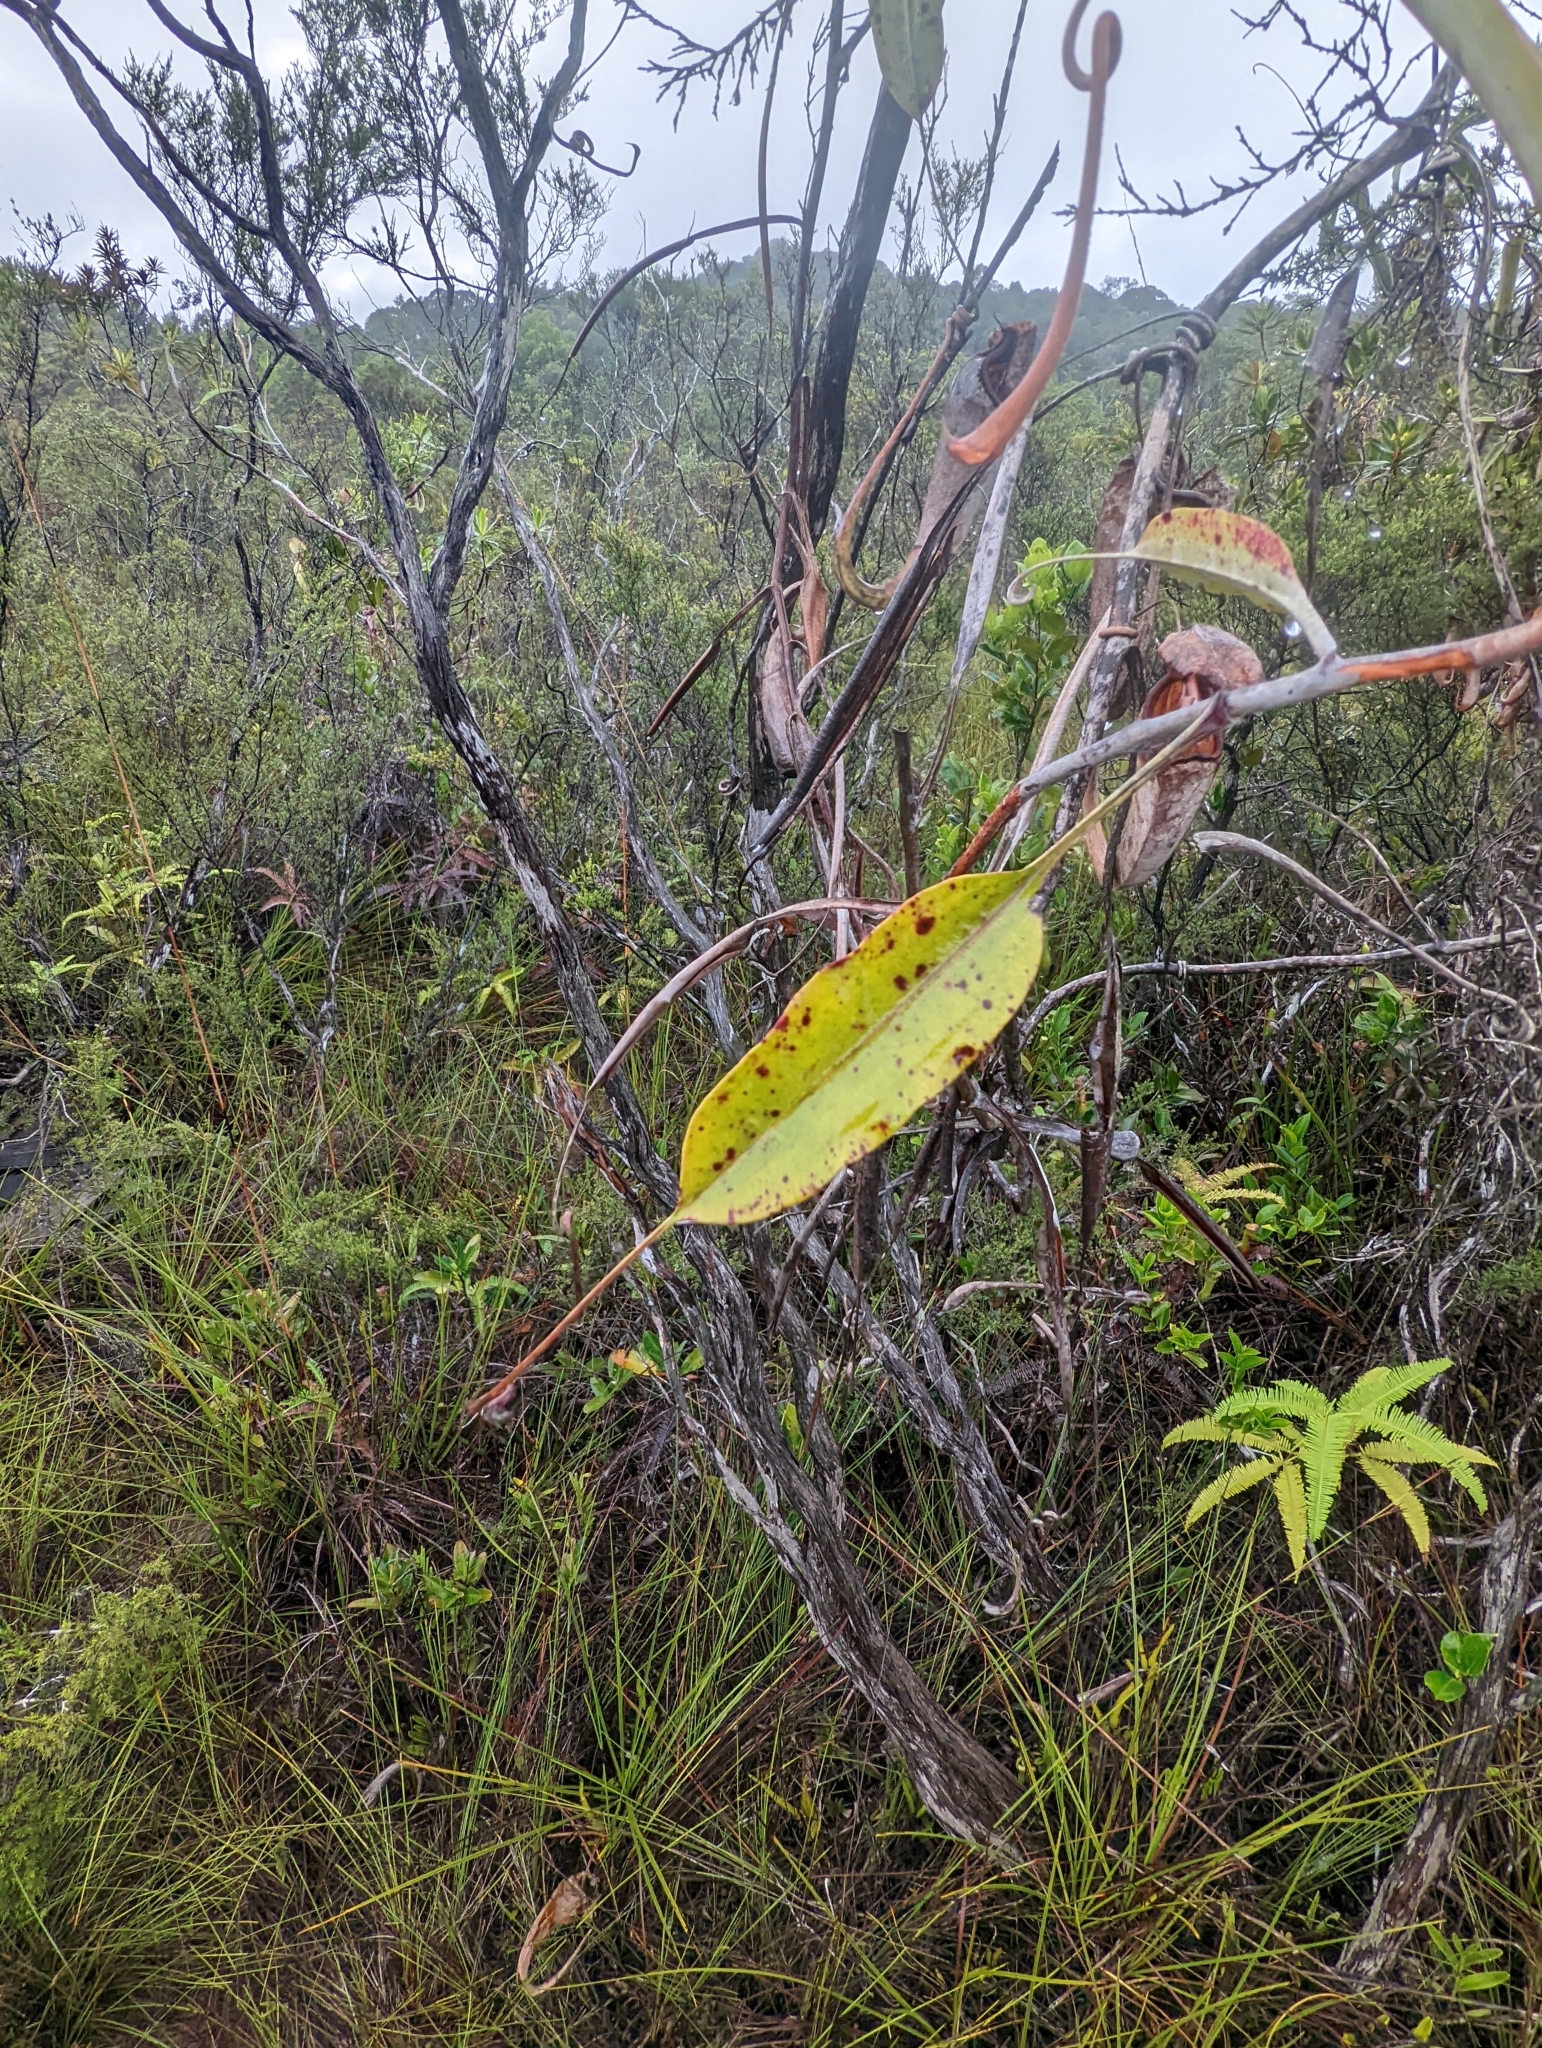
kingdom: Plantae
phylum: Tracheophyta
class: Magnoliopsida
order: Caryophyllales
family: Nepenthaceae
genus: Nepenthes
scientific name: Nepenthes rafflesiana
